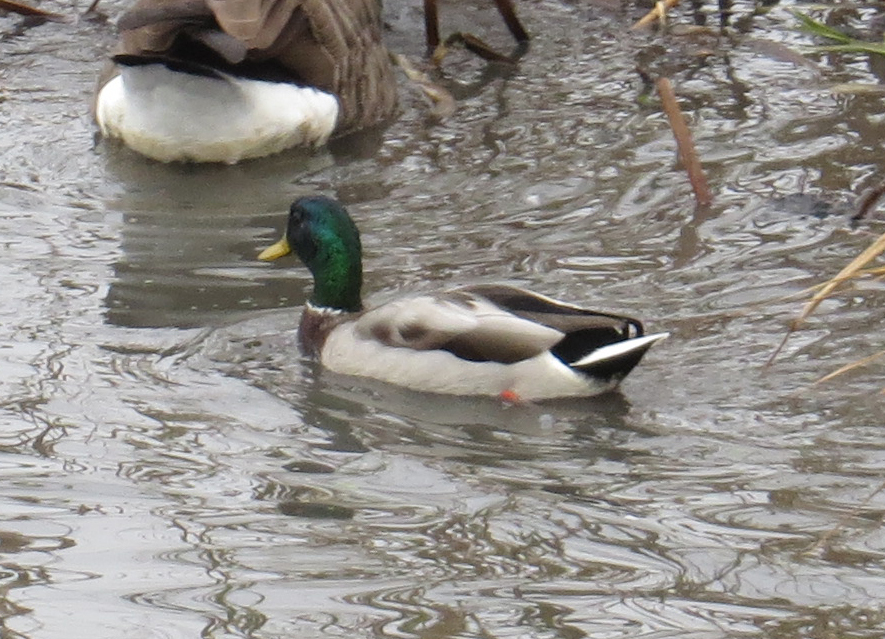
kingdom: Animalia
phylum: Chordata
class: Aves
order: Anseriformes
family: Anatidae
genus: Anas
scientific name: Anas platyrhynchos
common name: Mallard
